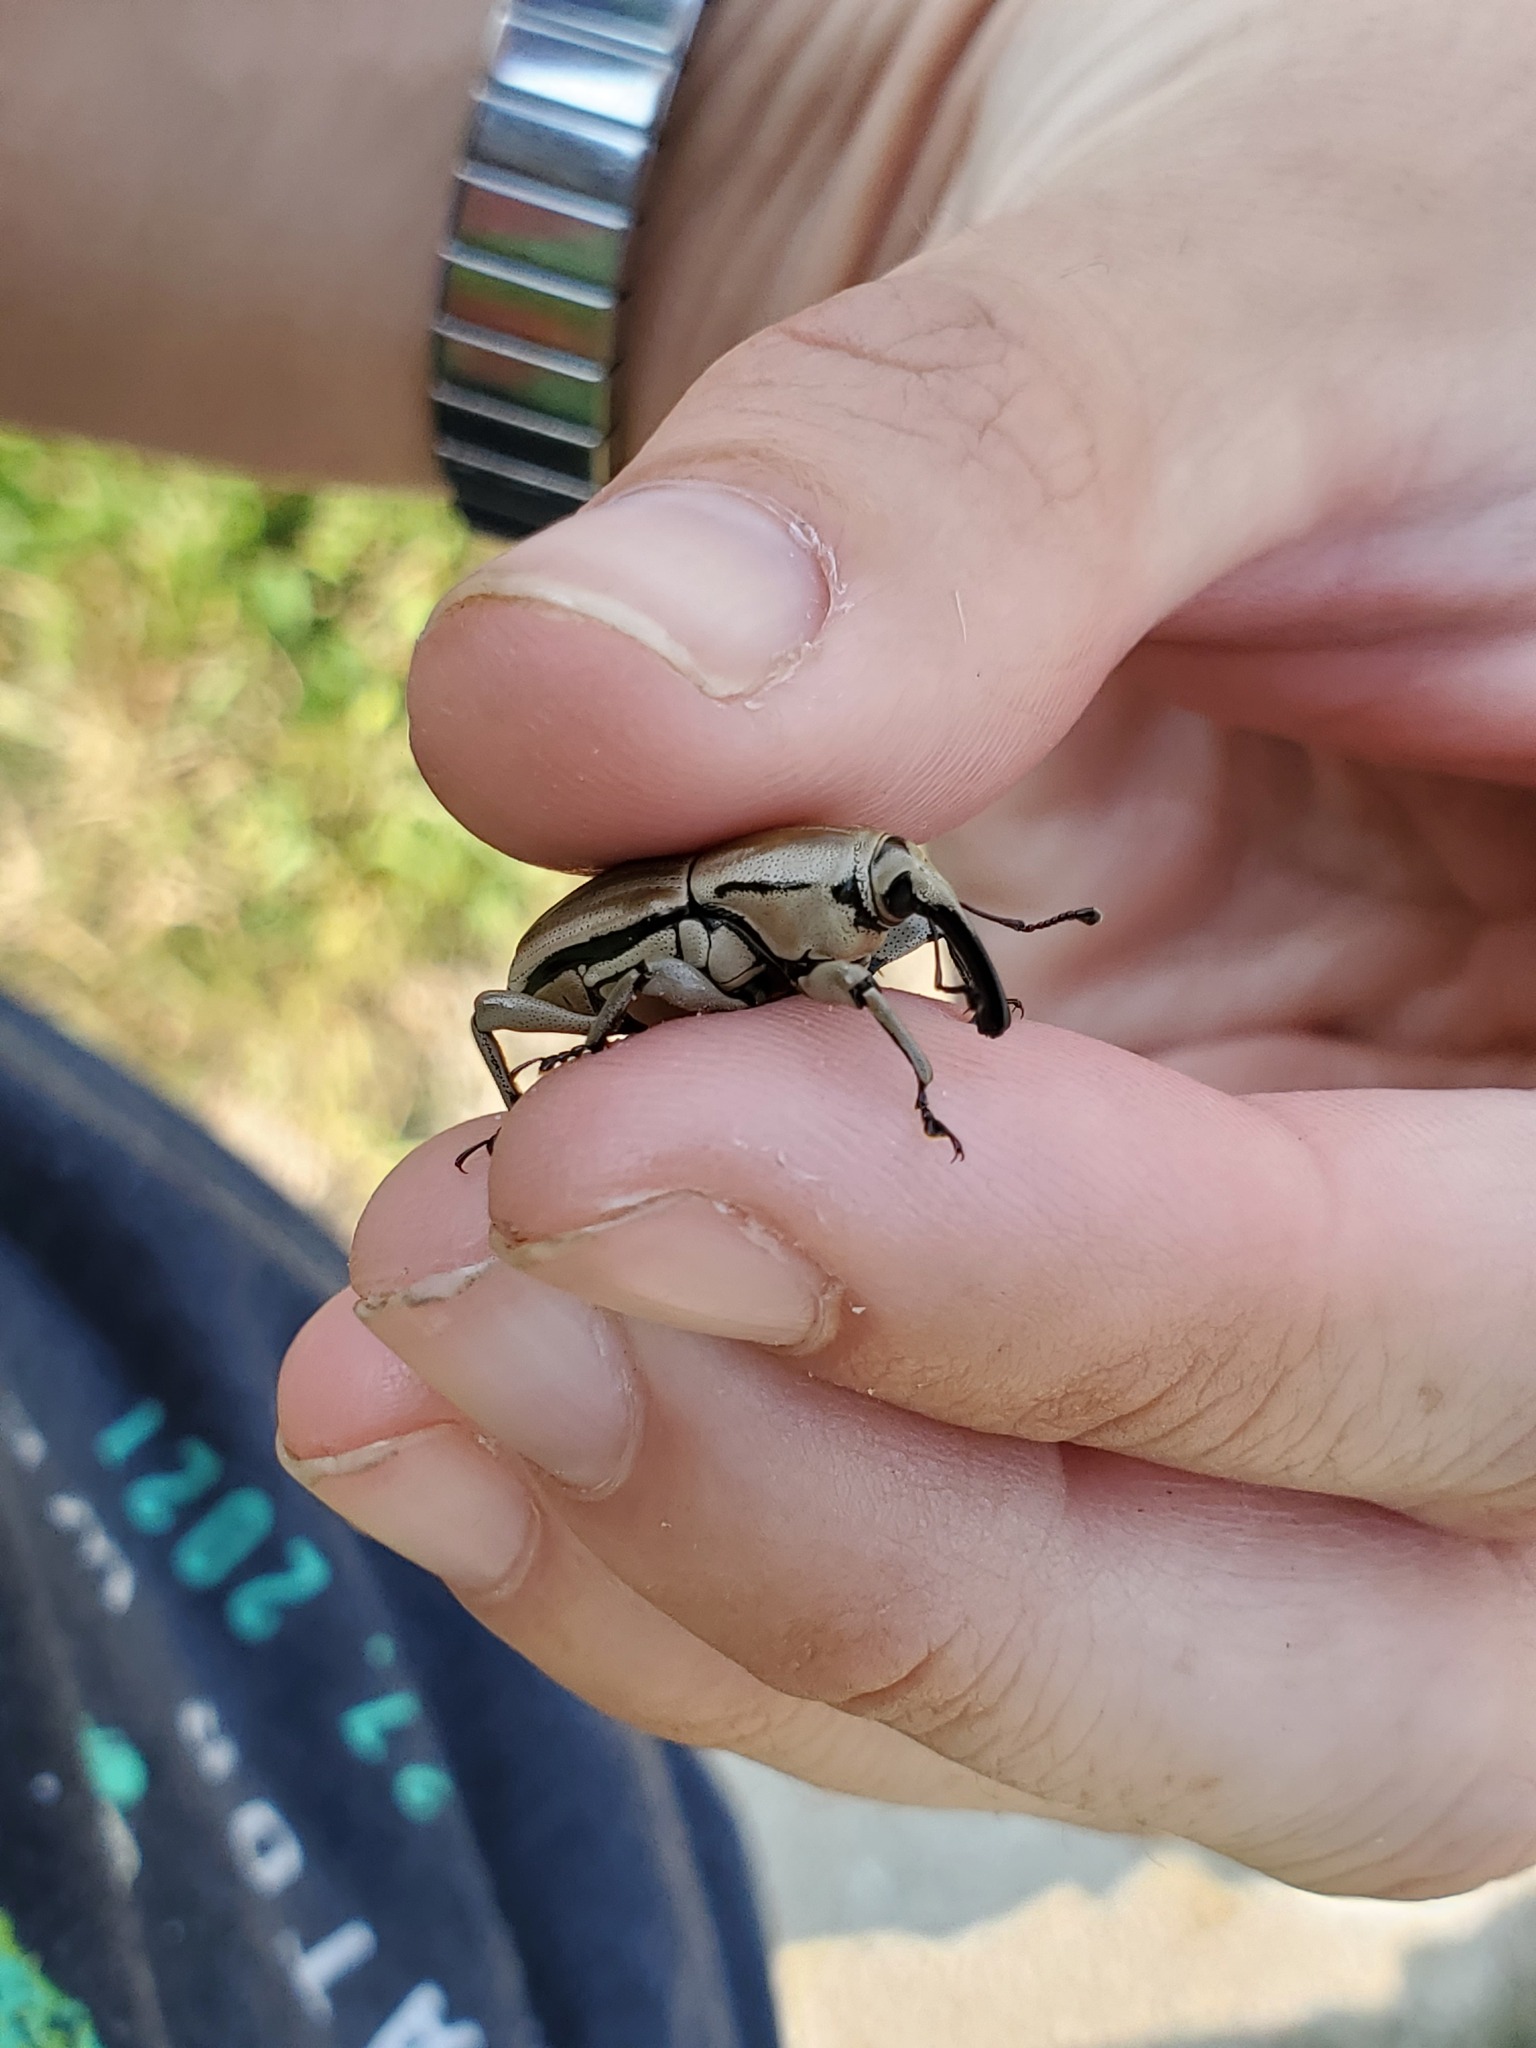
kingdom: Animalia
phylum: Arthropoda
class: Insecta
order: Coleoptera
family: Dryophthoridae
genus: Sphenophorus
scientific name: Sphenophorus aequalis
